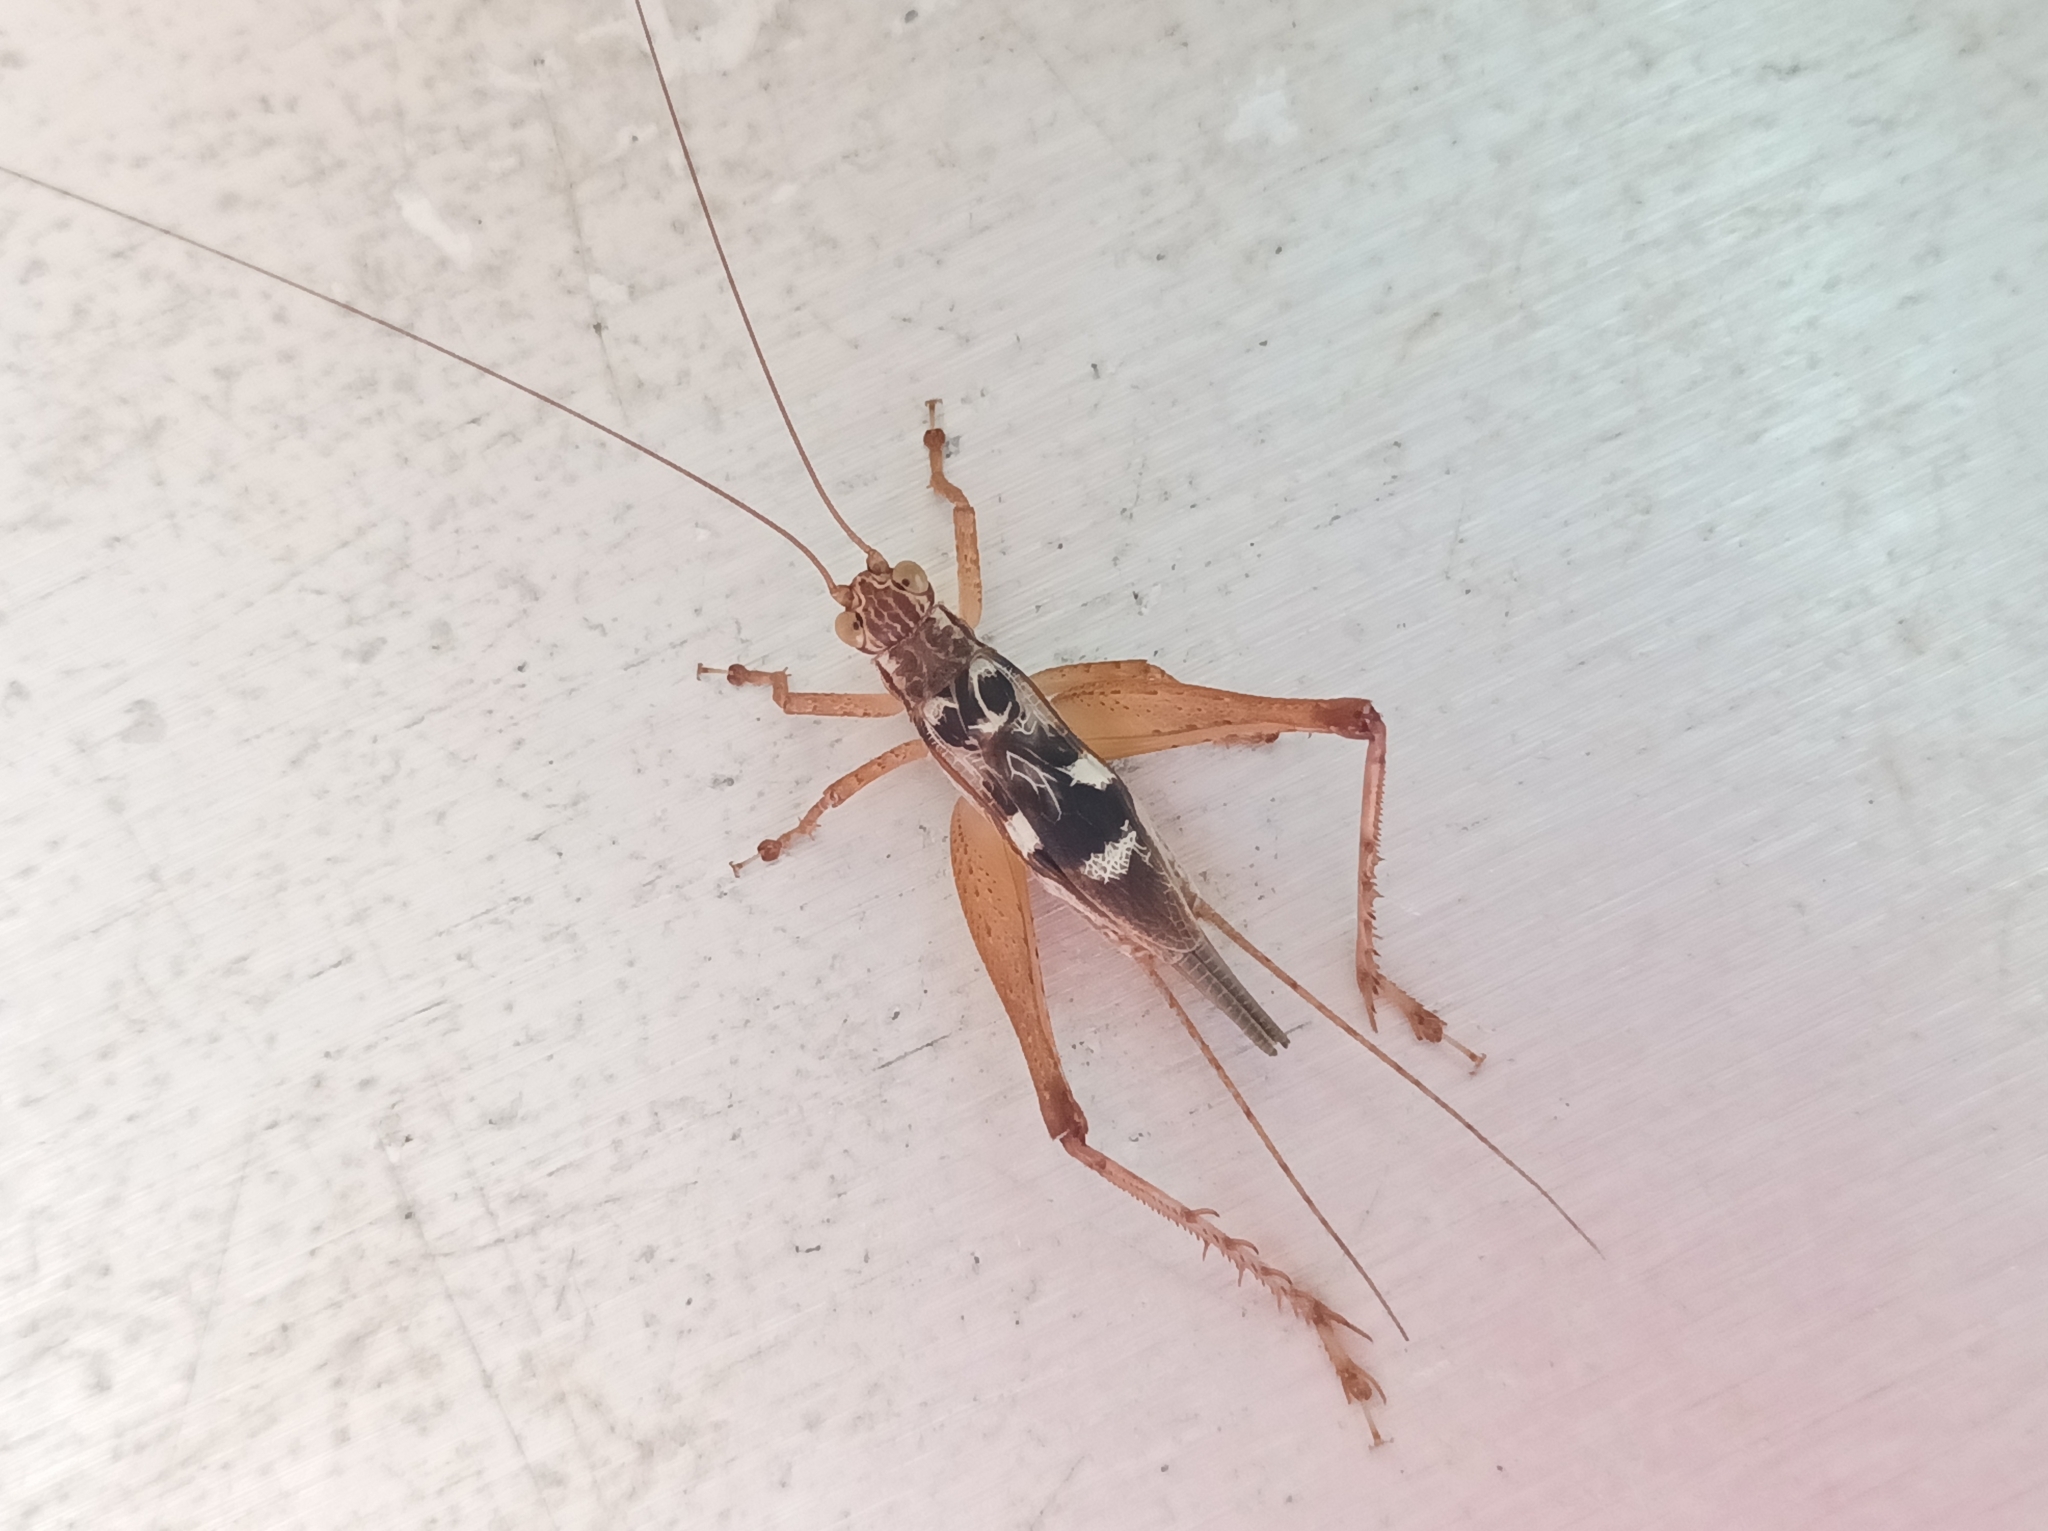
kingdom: Animalia
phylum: Arthropoda
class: Insecta
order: Orthoptera
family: Gryllidae
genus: Cardiodactylus
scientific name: Cardiodactylus novaeguineae
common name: Sad cricket
